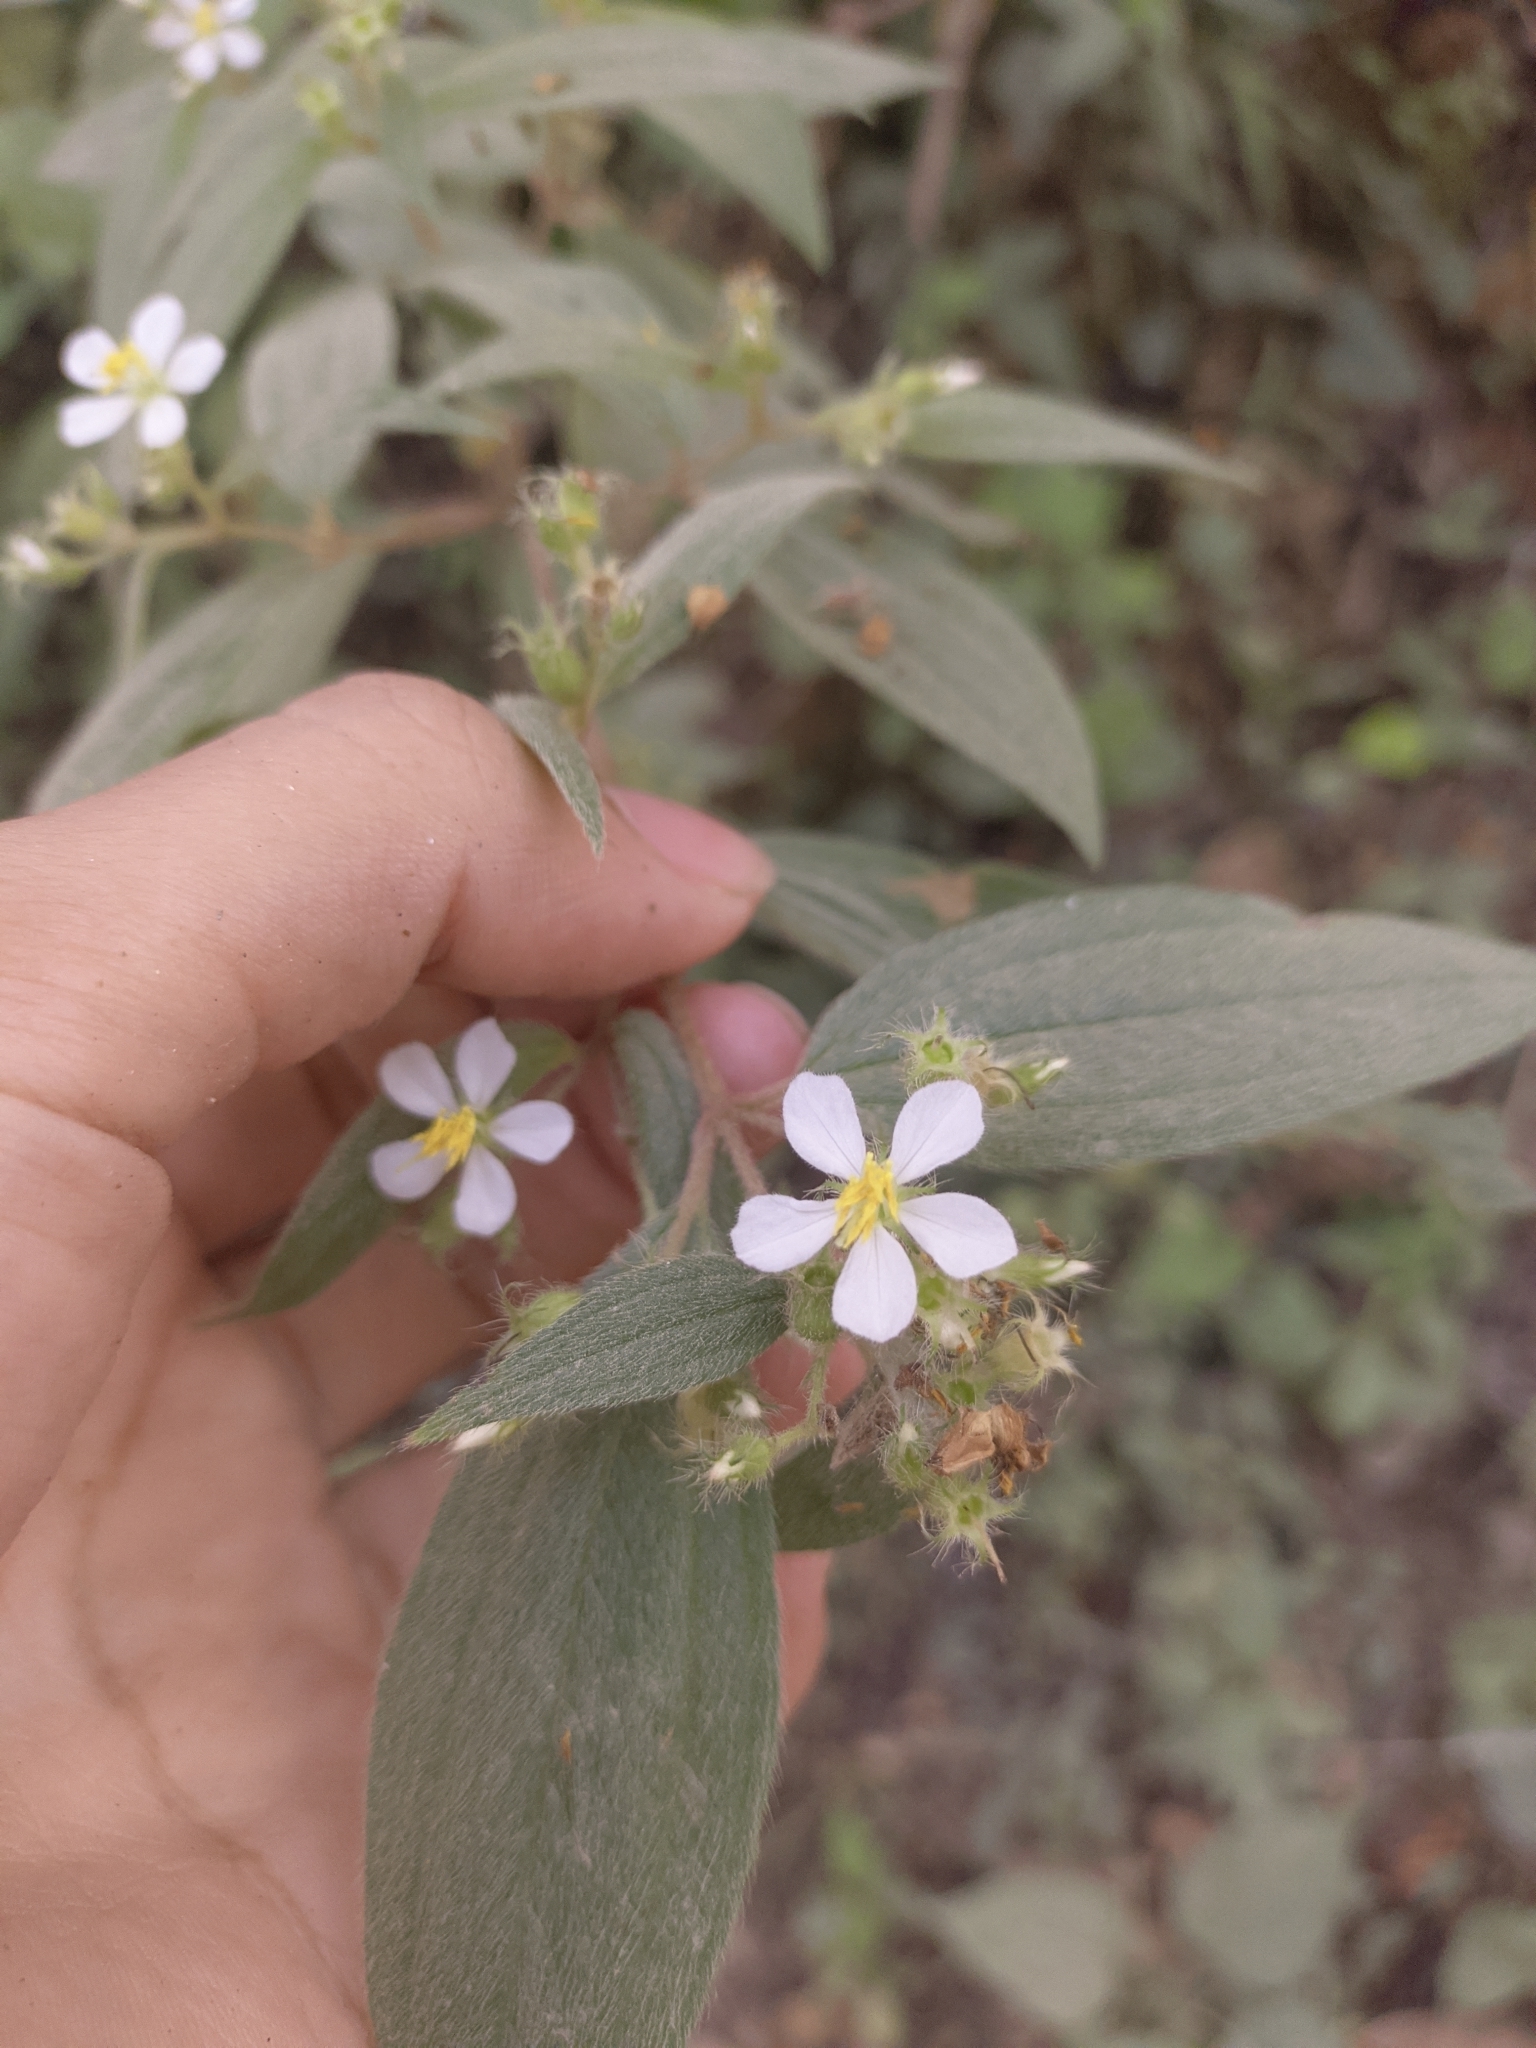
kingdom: Plantae
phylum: Tracheophyta
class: Magnoliopsida
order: Myrtales
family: Melastomataceae
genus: Chaetogastra
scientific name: Chaetogastra longifolia
